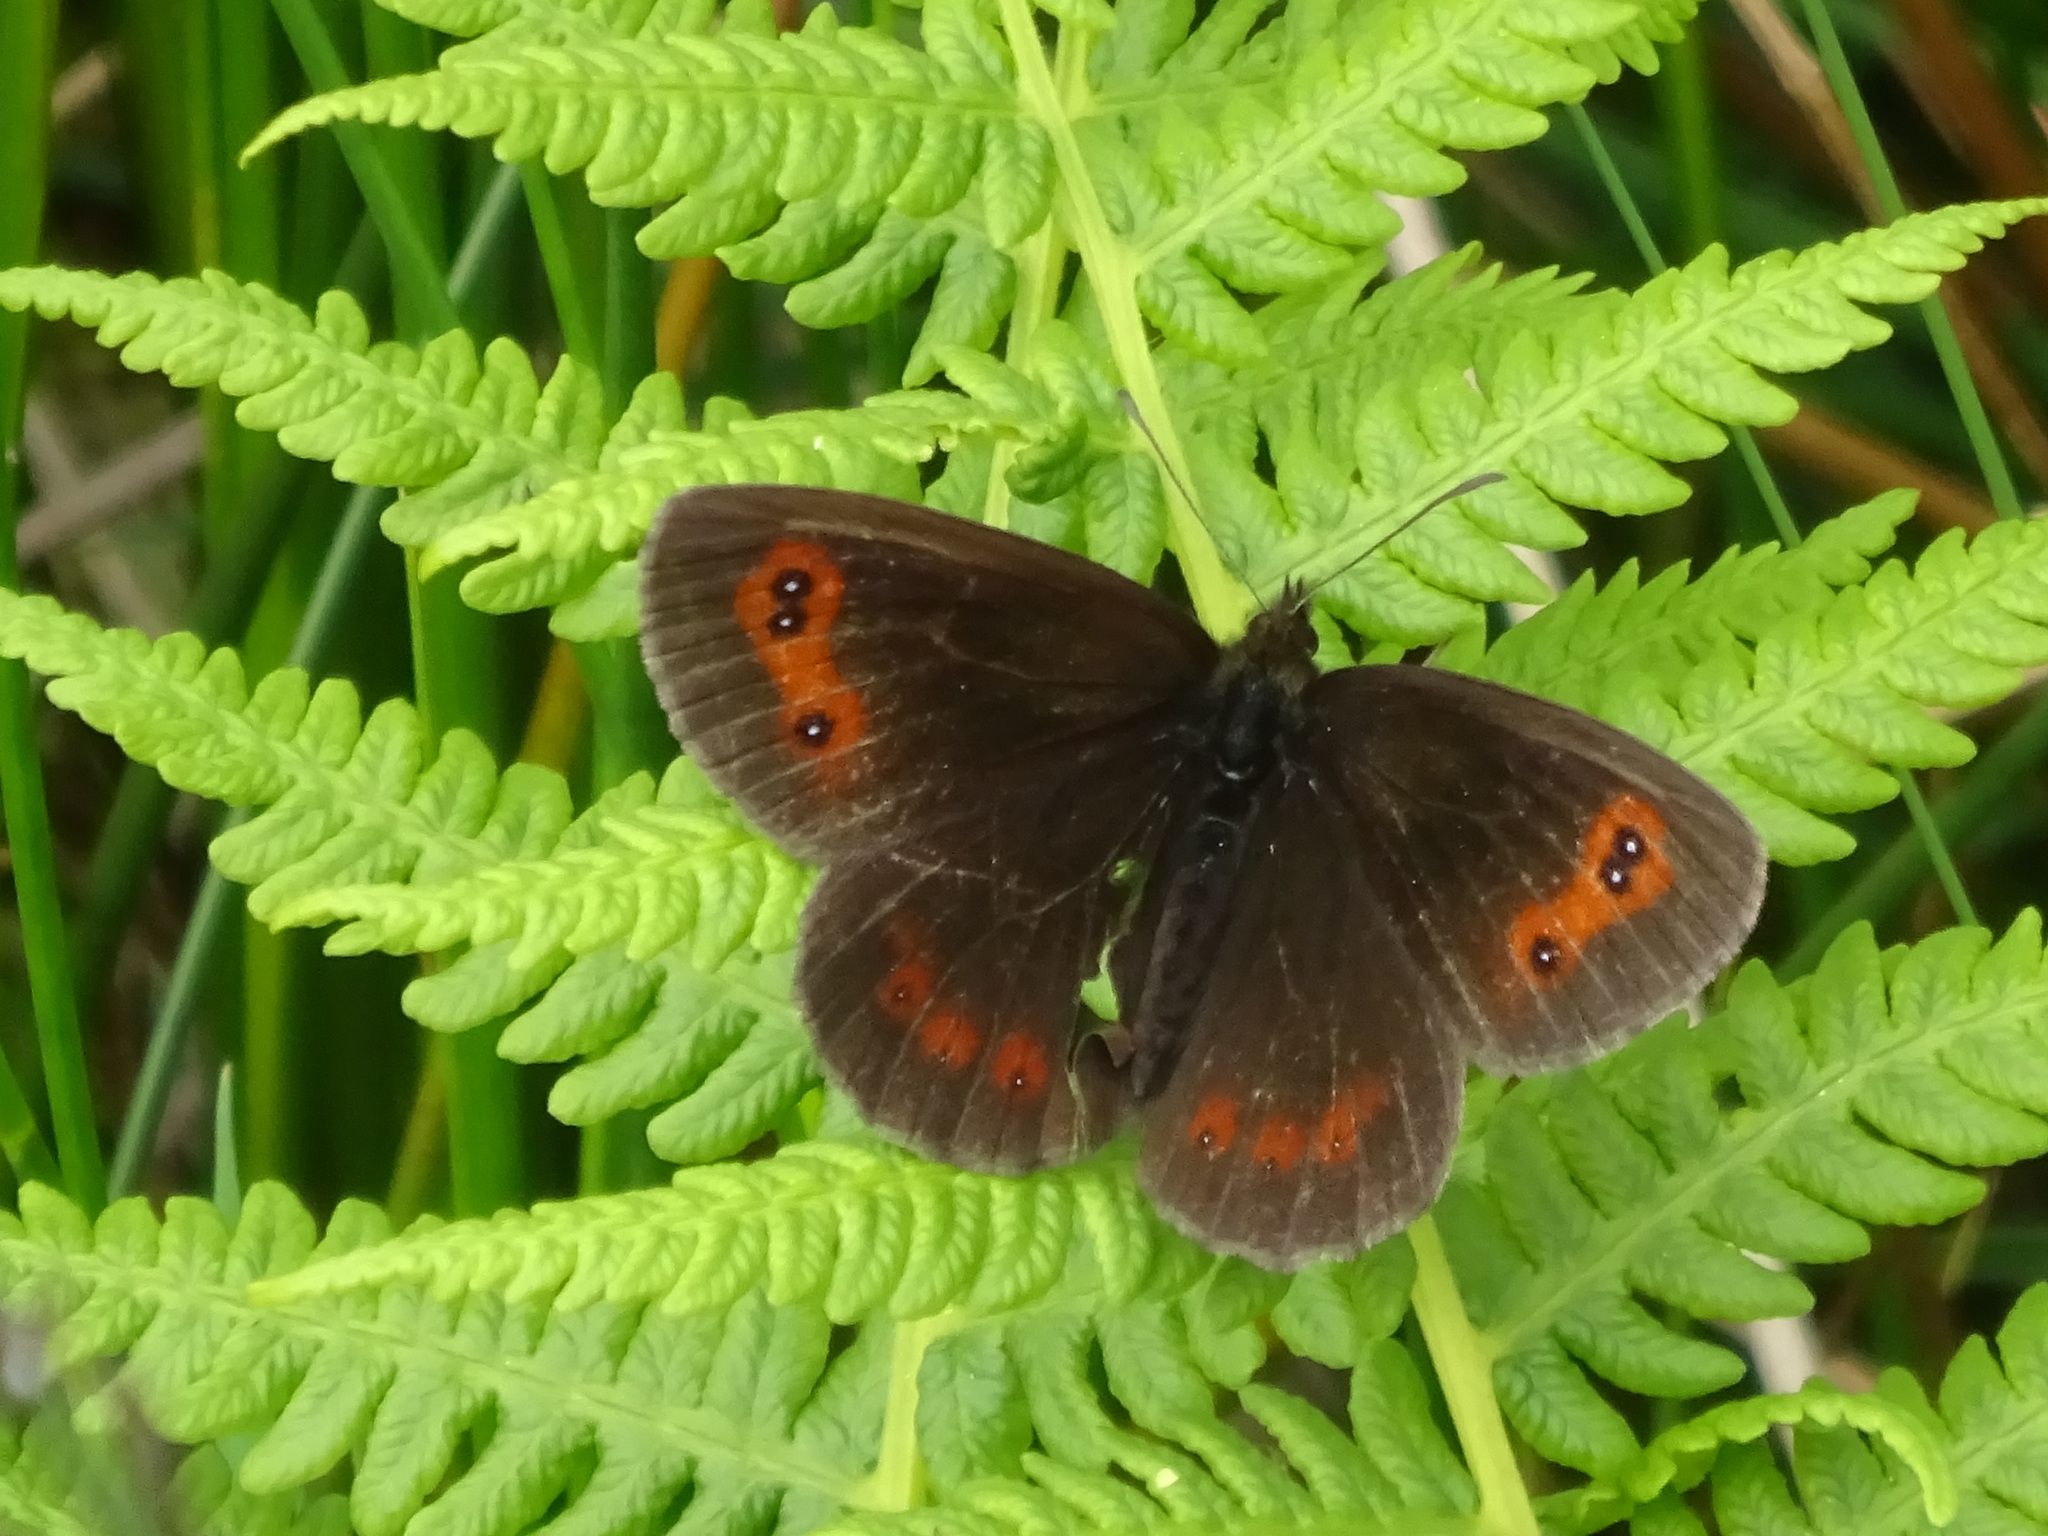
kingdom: Animalia
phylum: Arthropoda
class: Insecta
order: Lepidoptera
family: Nymphalidae
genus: Erebia
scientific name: Erebia aethiops
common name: Scotch argus
